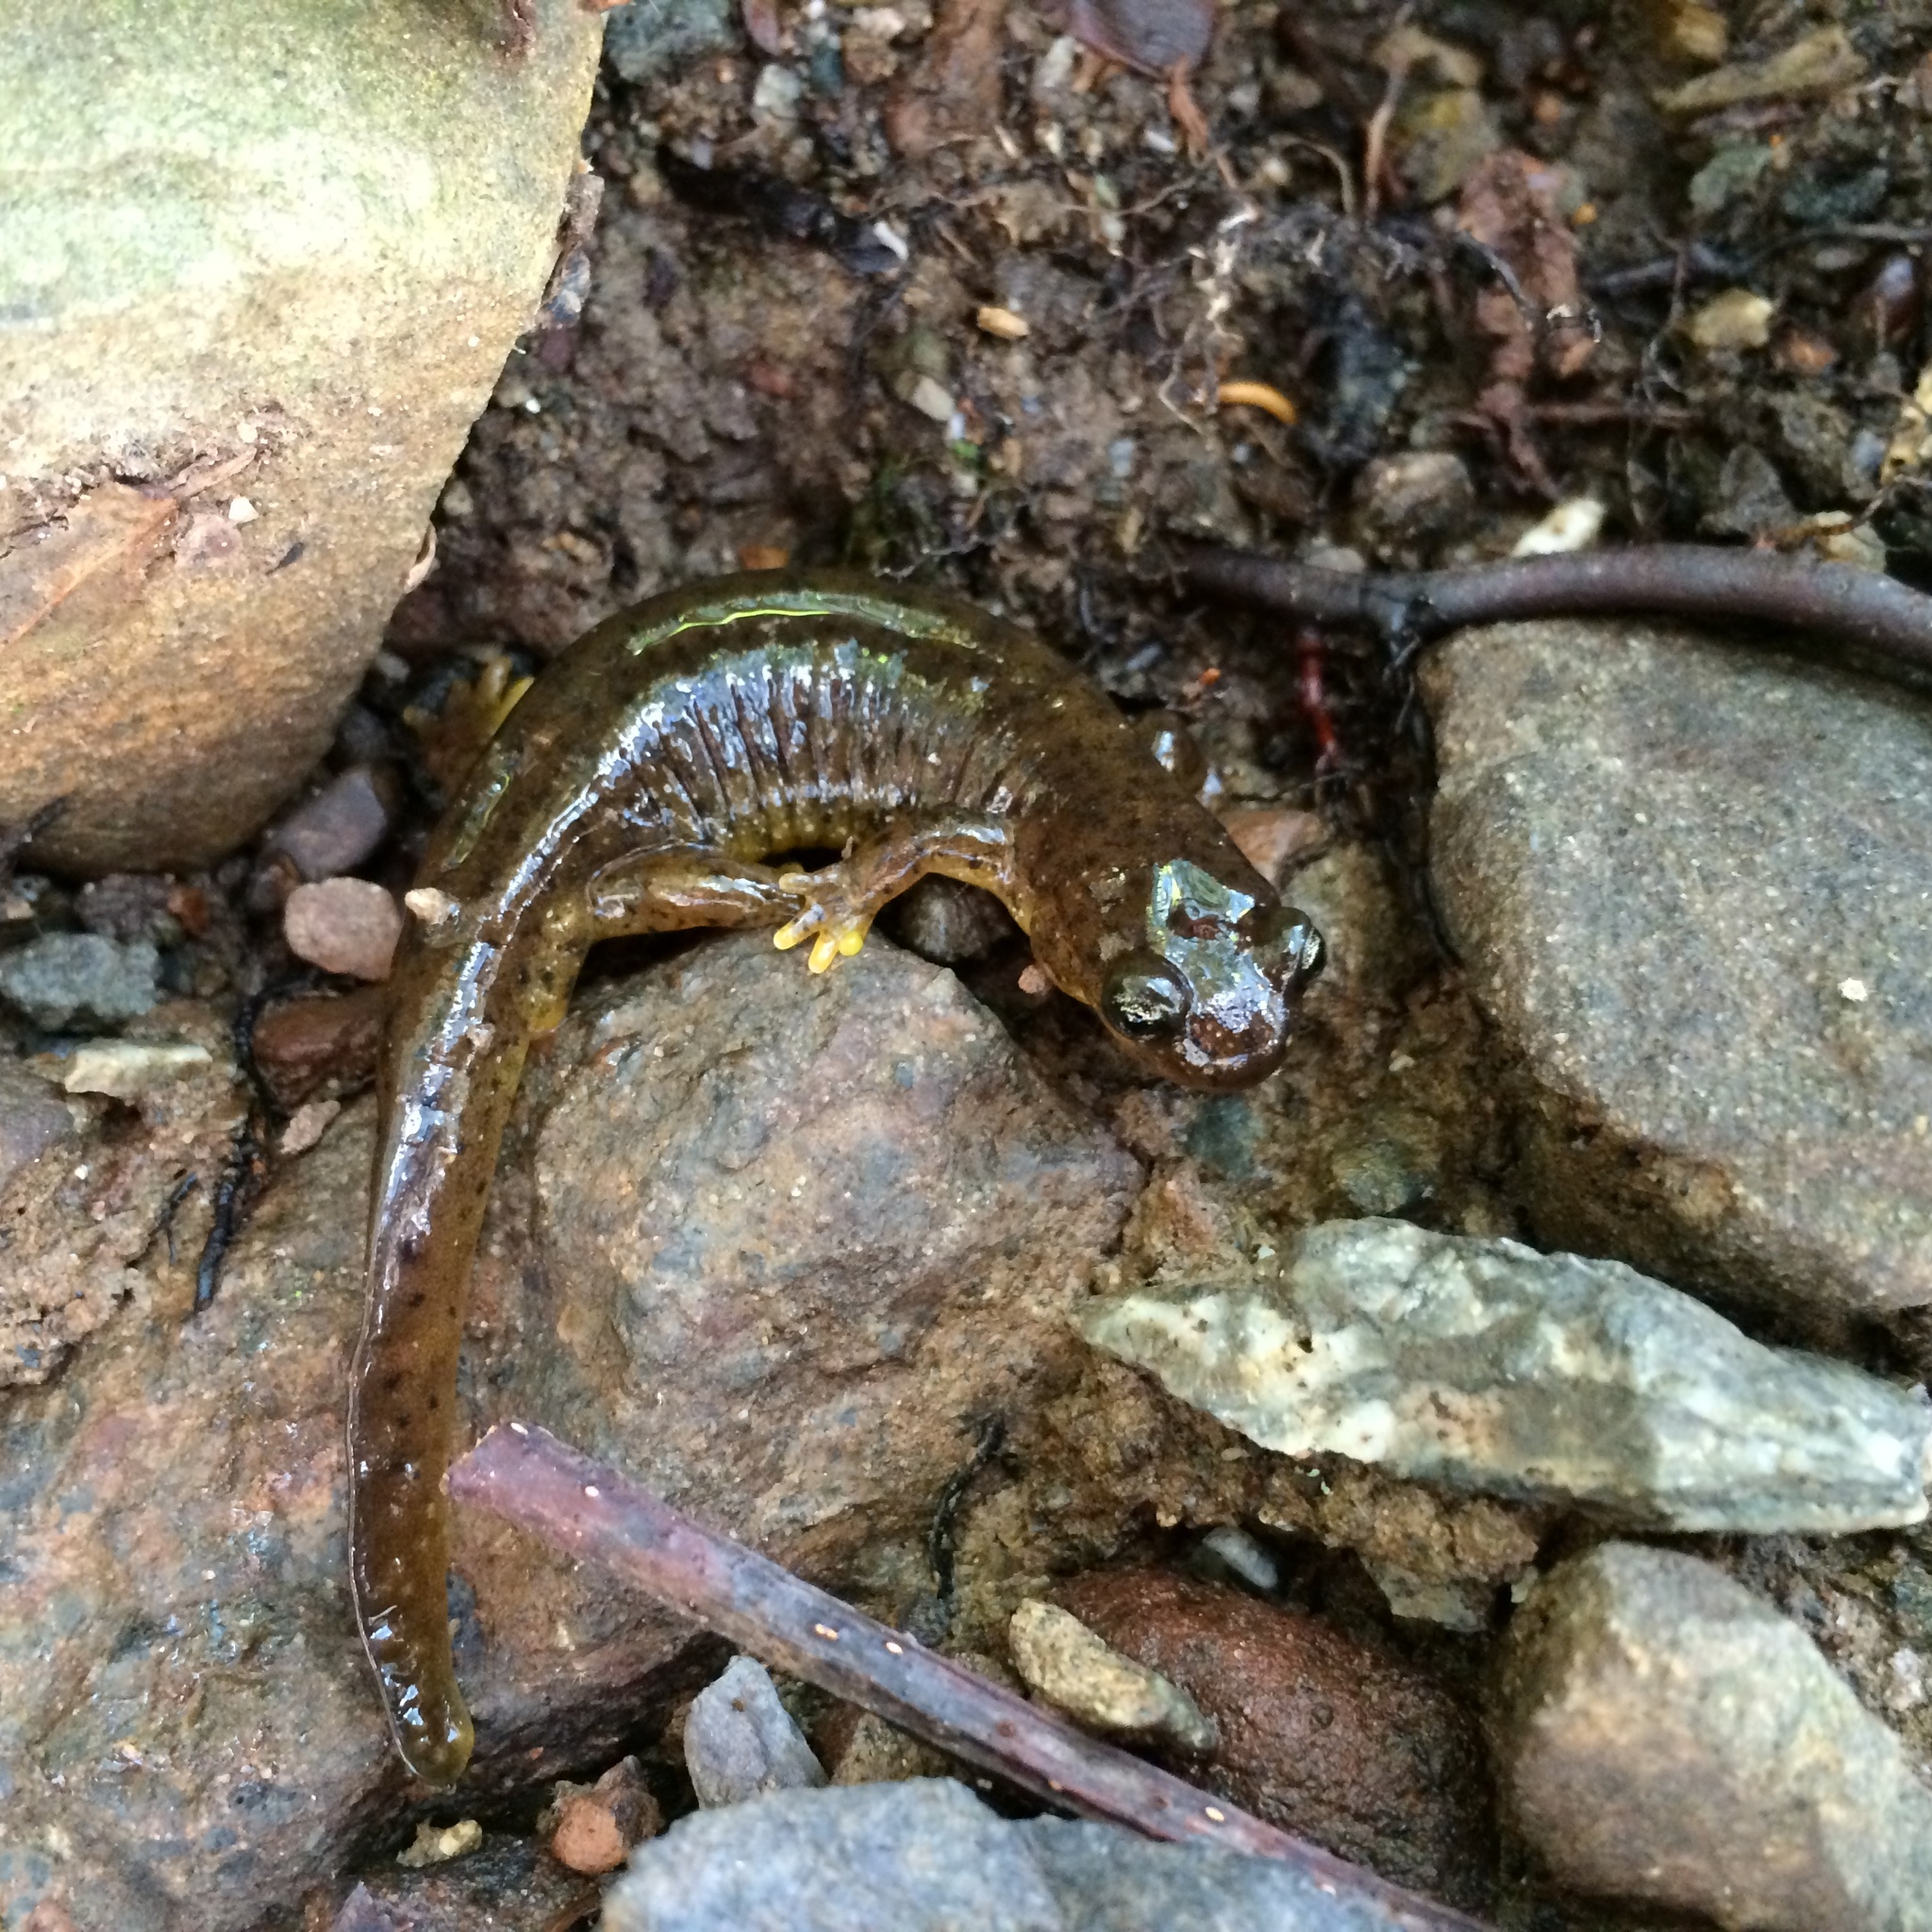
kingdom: Animalia
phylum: Chordata
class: Amphibia
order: Caudata
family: Rhyacotritonidae
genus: Rhyacotriton
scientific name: Rhyacotriton variegatus
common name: Southern torrent salamander
